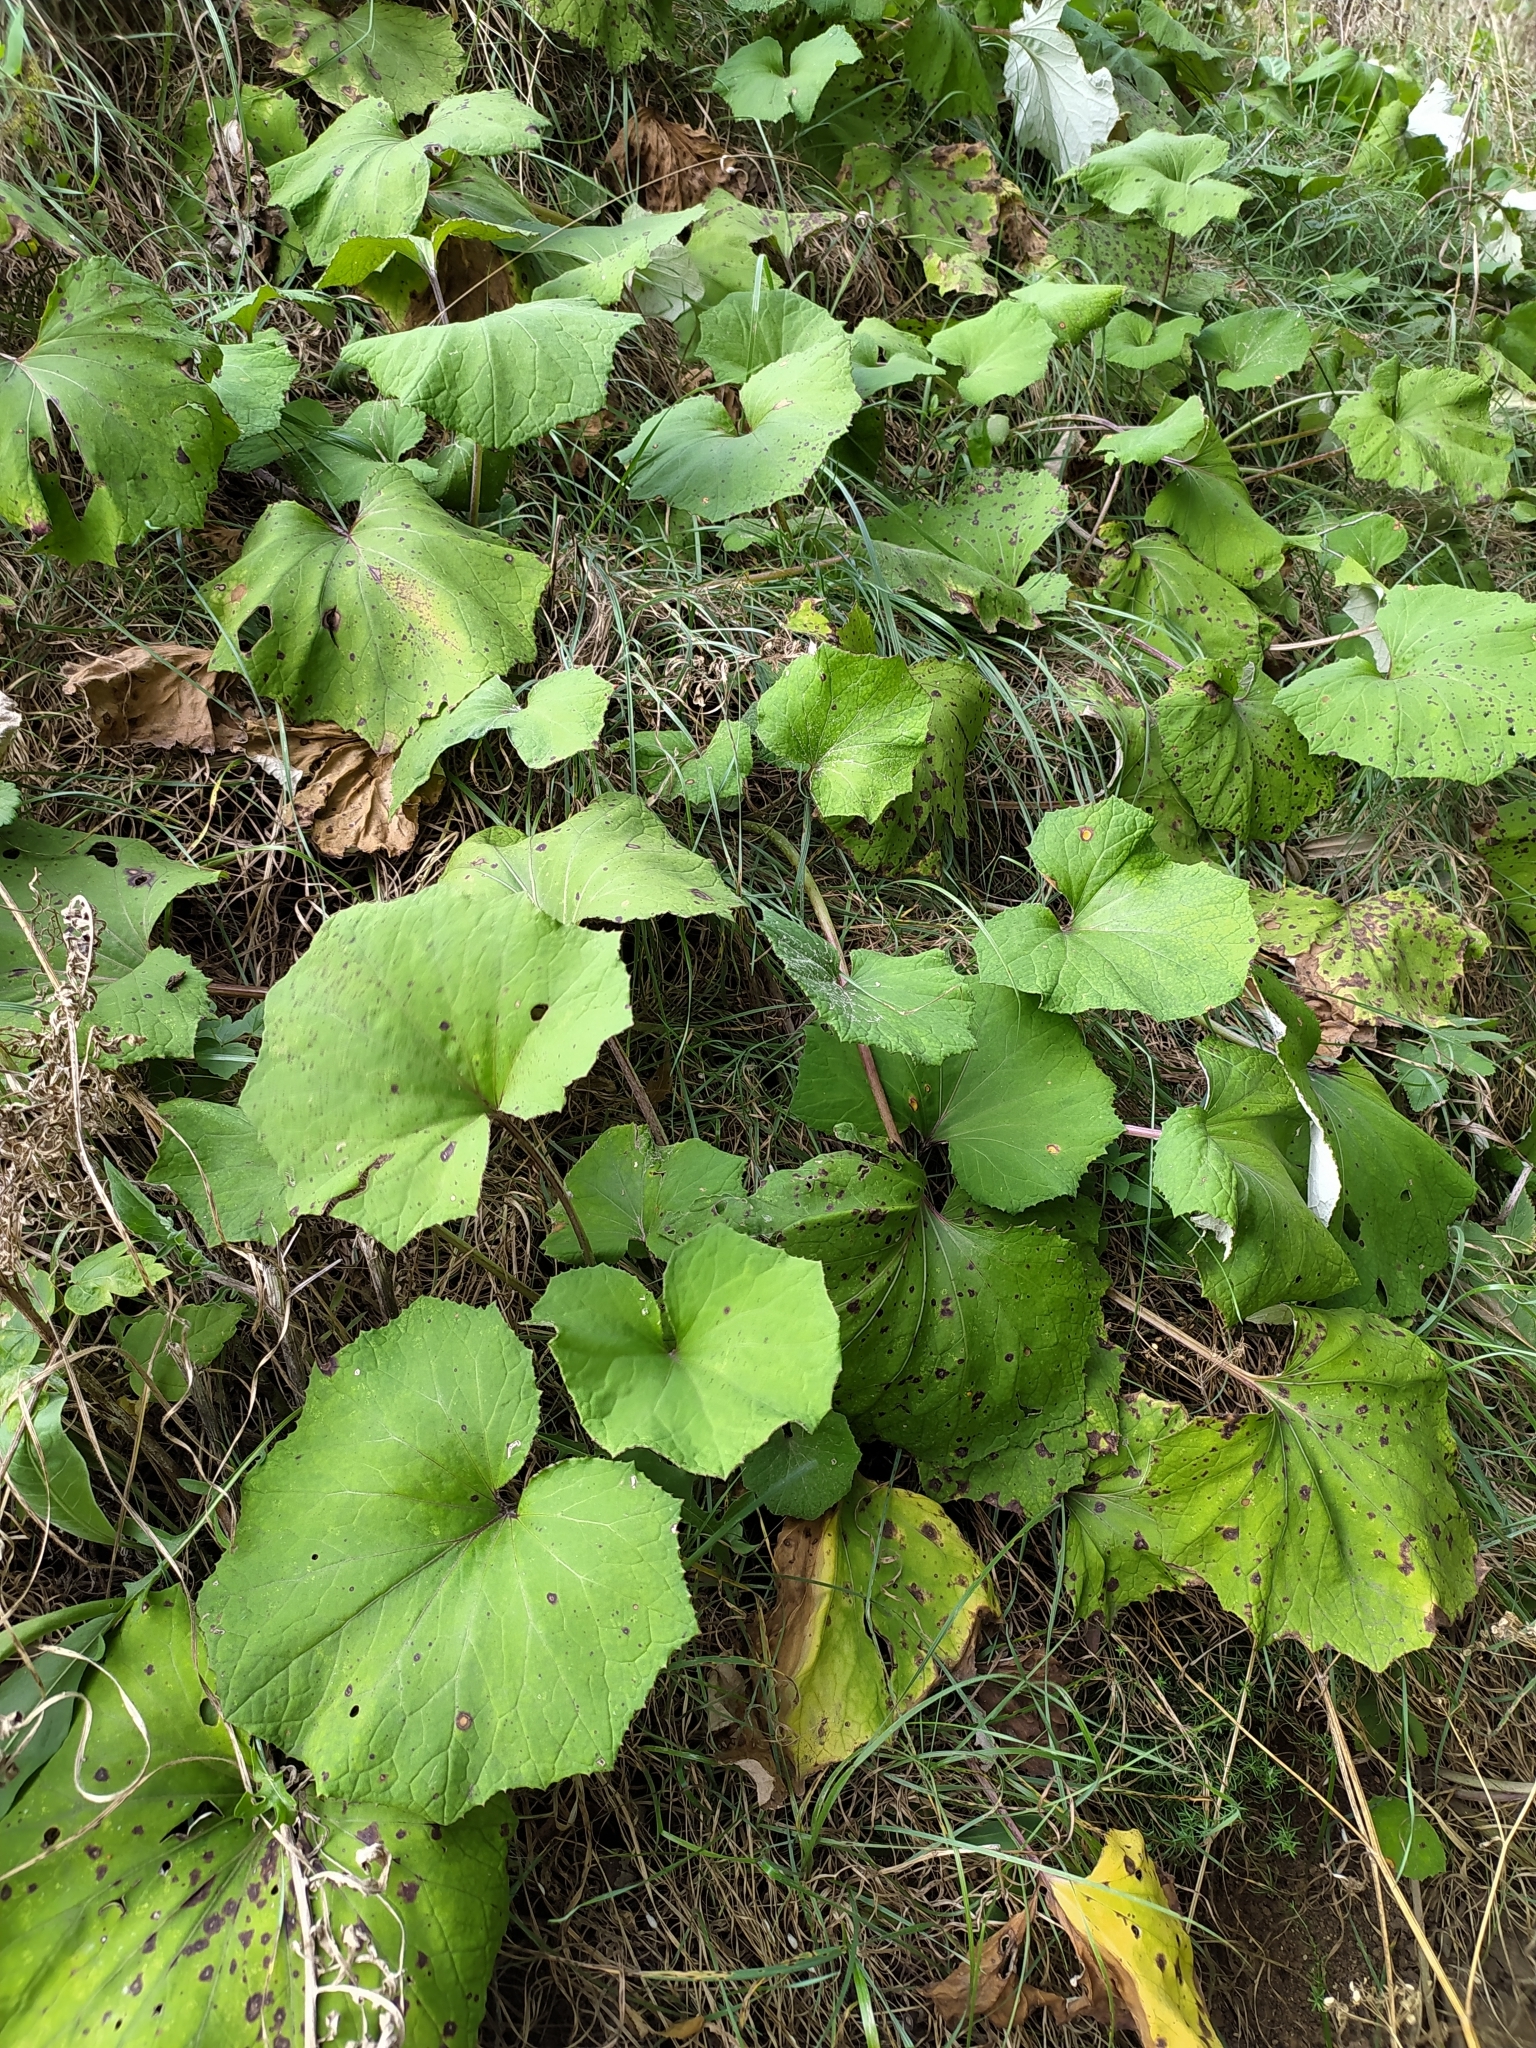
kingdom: Plantae
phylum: Tracheophyta
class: Magnoliopsida
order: Asterales
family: Asteraceae
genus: Tussilago
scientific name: Tussilago farfara
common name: Coltsfoot
